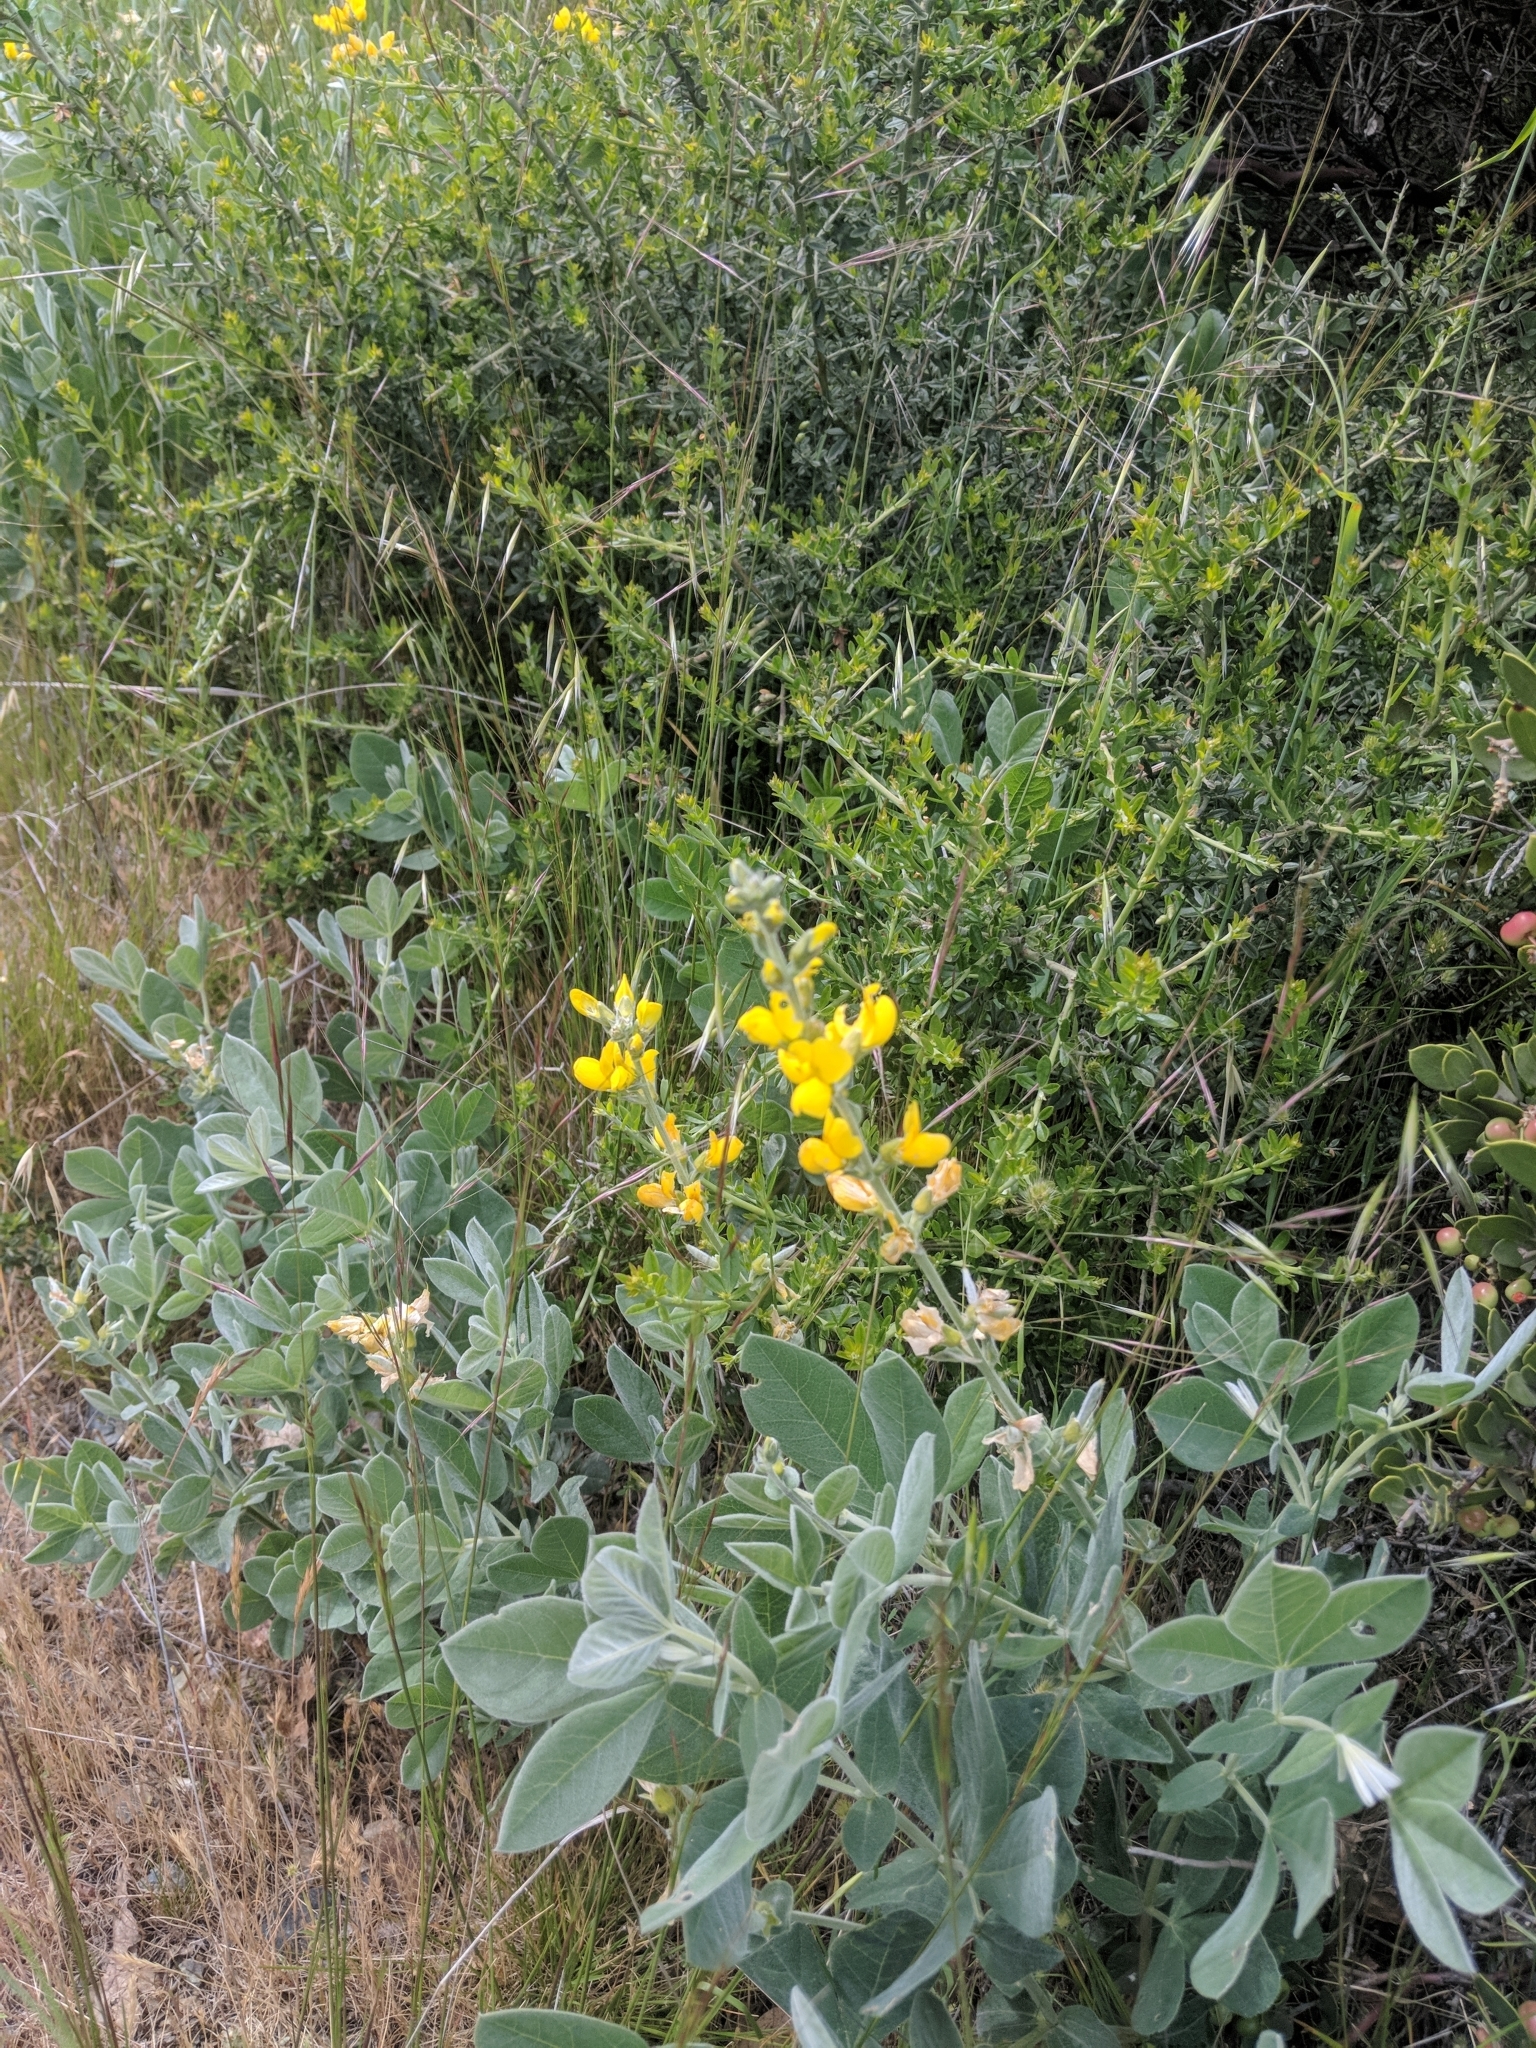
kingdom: Plantae
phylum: Tracheophyta
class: Magnoliopsida
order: Fabales
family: Fabaceae
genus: Thermopsis
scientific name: Thermopsis californica
